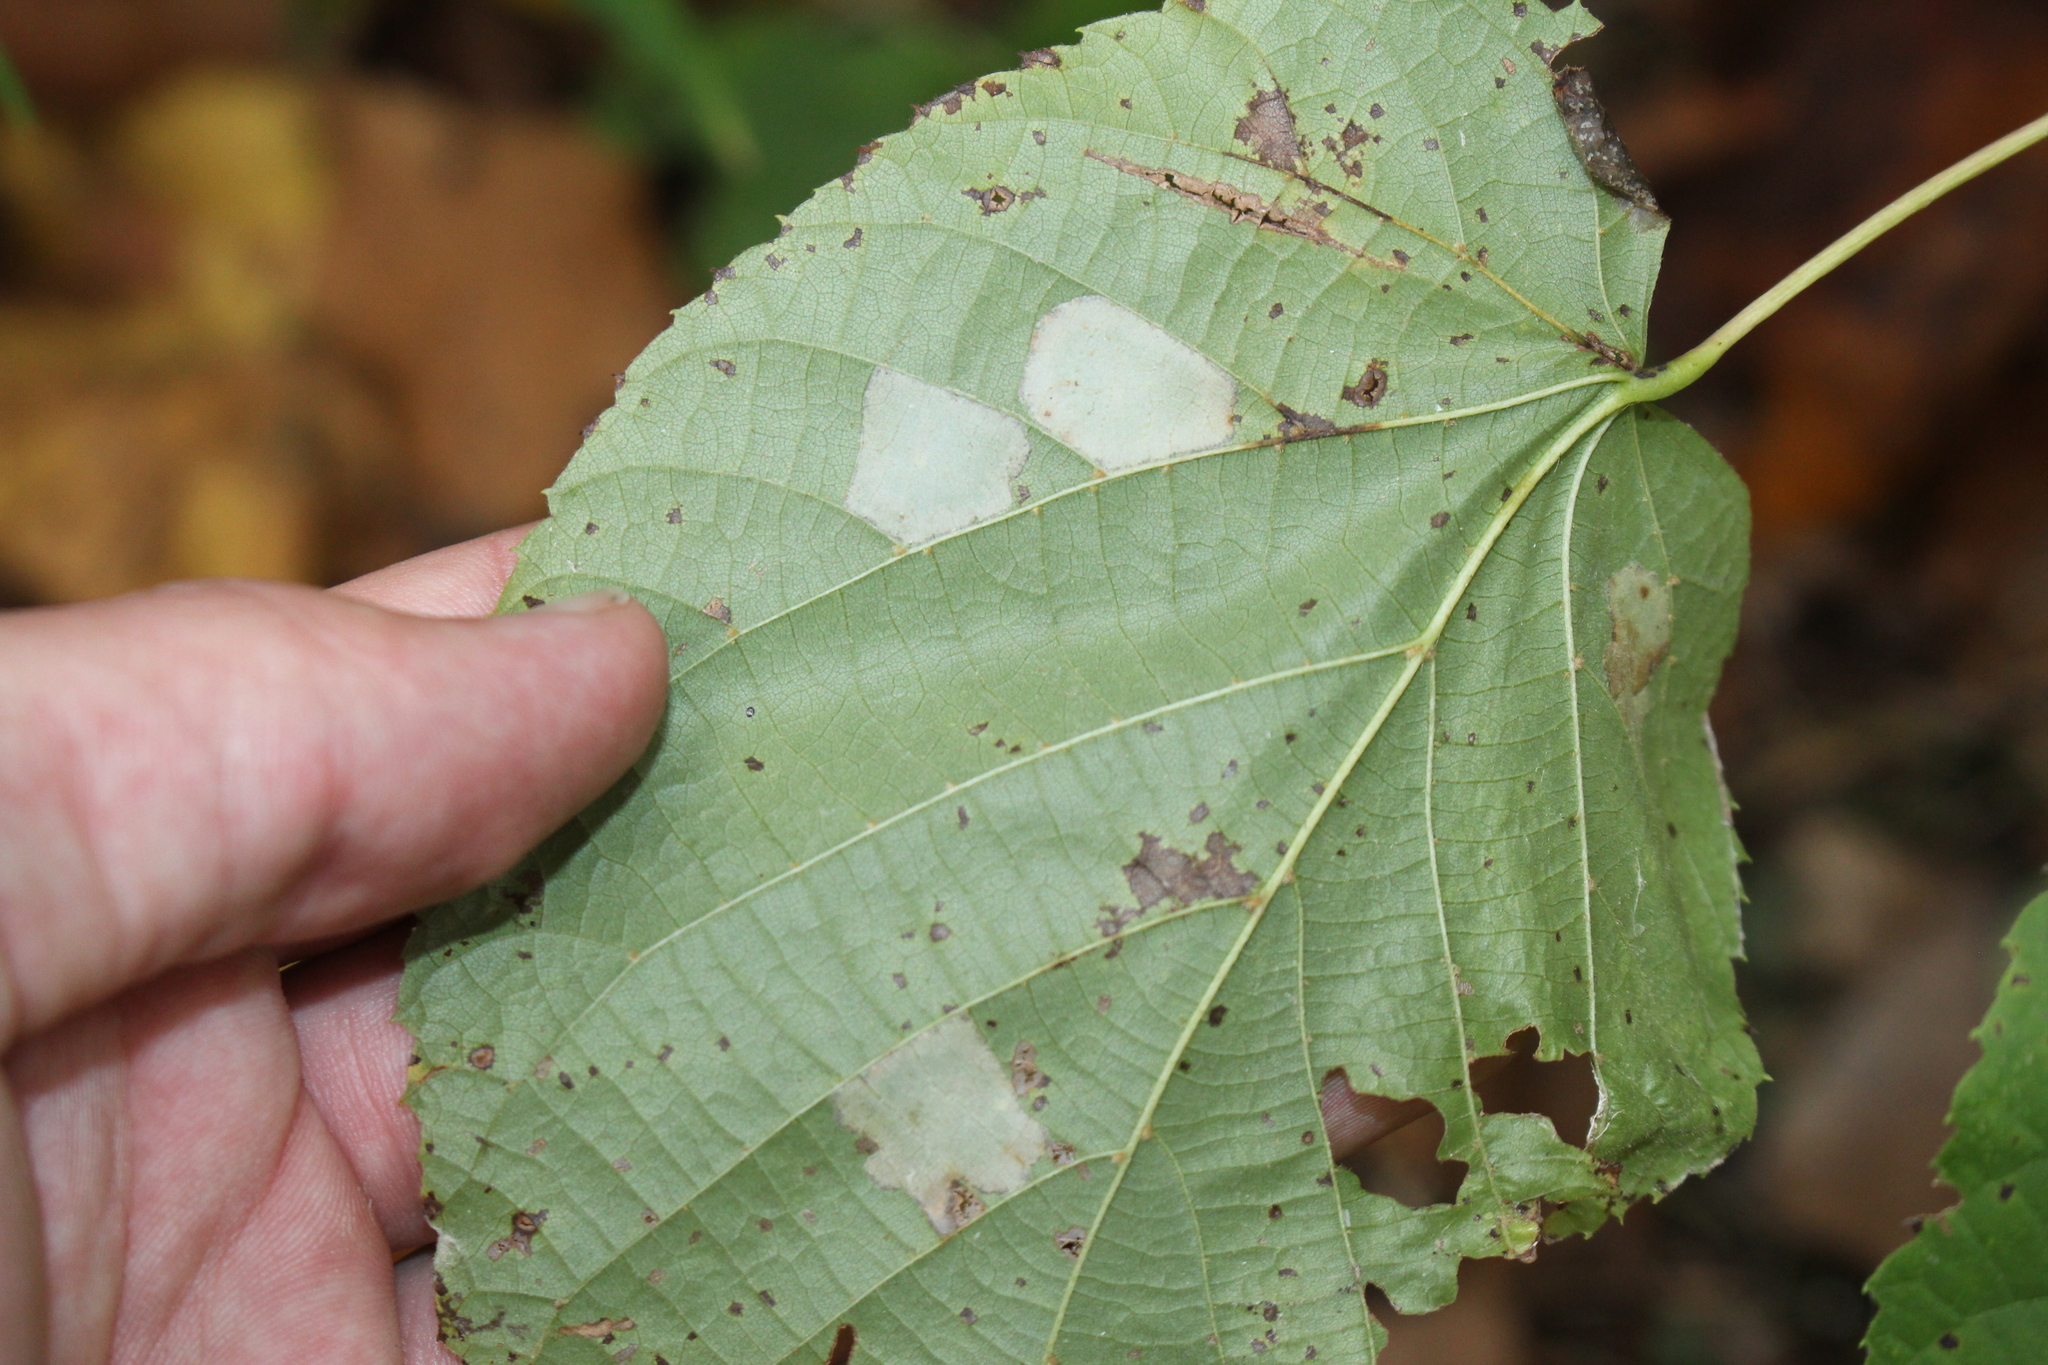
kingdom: Animalia
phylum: Arthropoda
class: Insecta
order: Lepidoptera
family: Gracillariidae
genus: Phyllonorycter
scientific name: Phyllonorycter lucetiella
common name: Basswood miner moth
